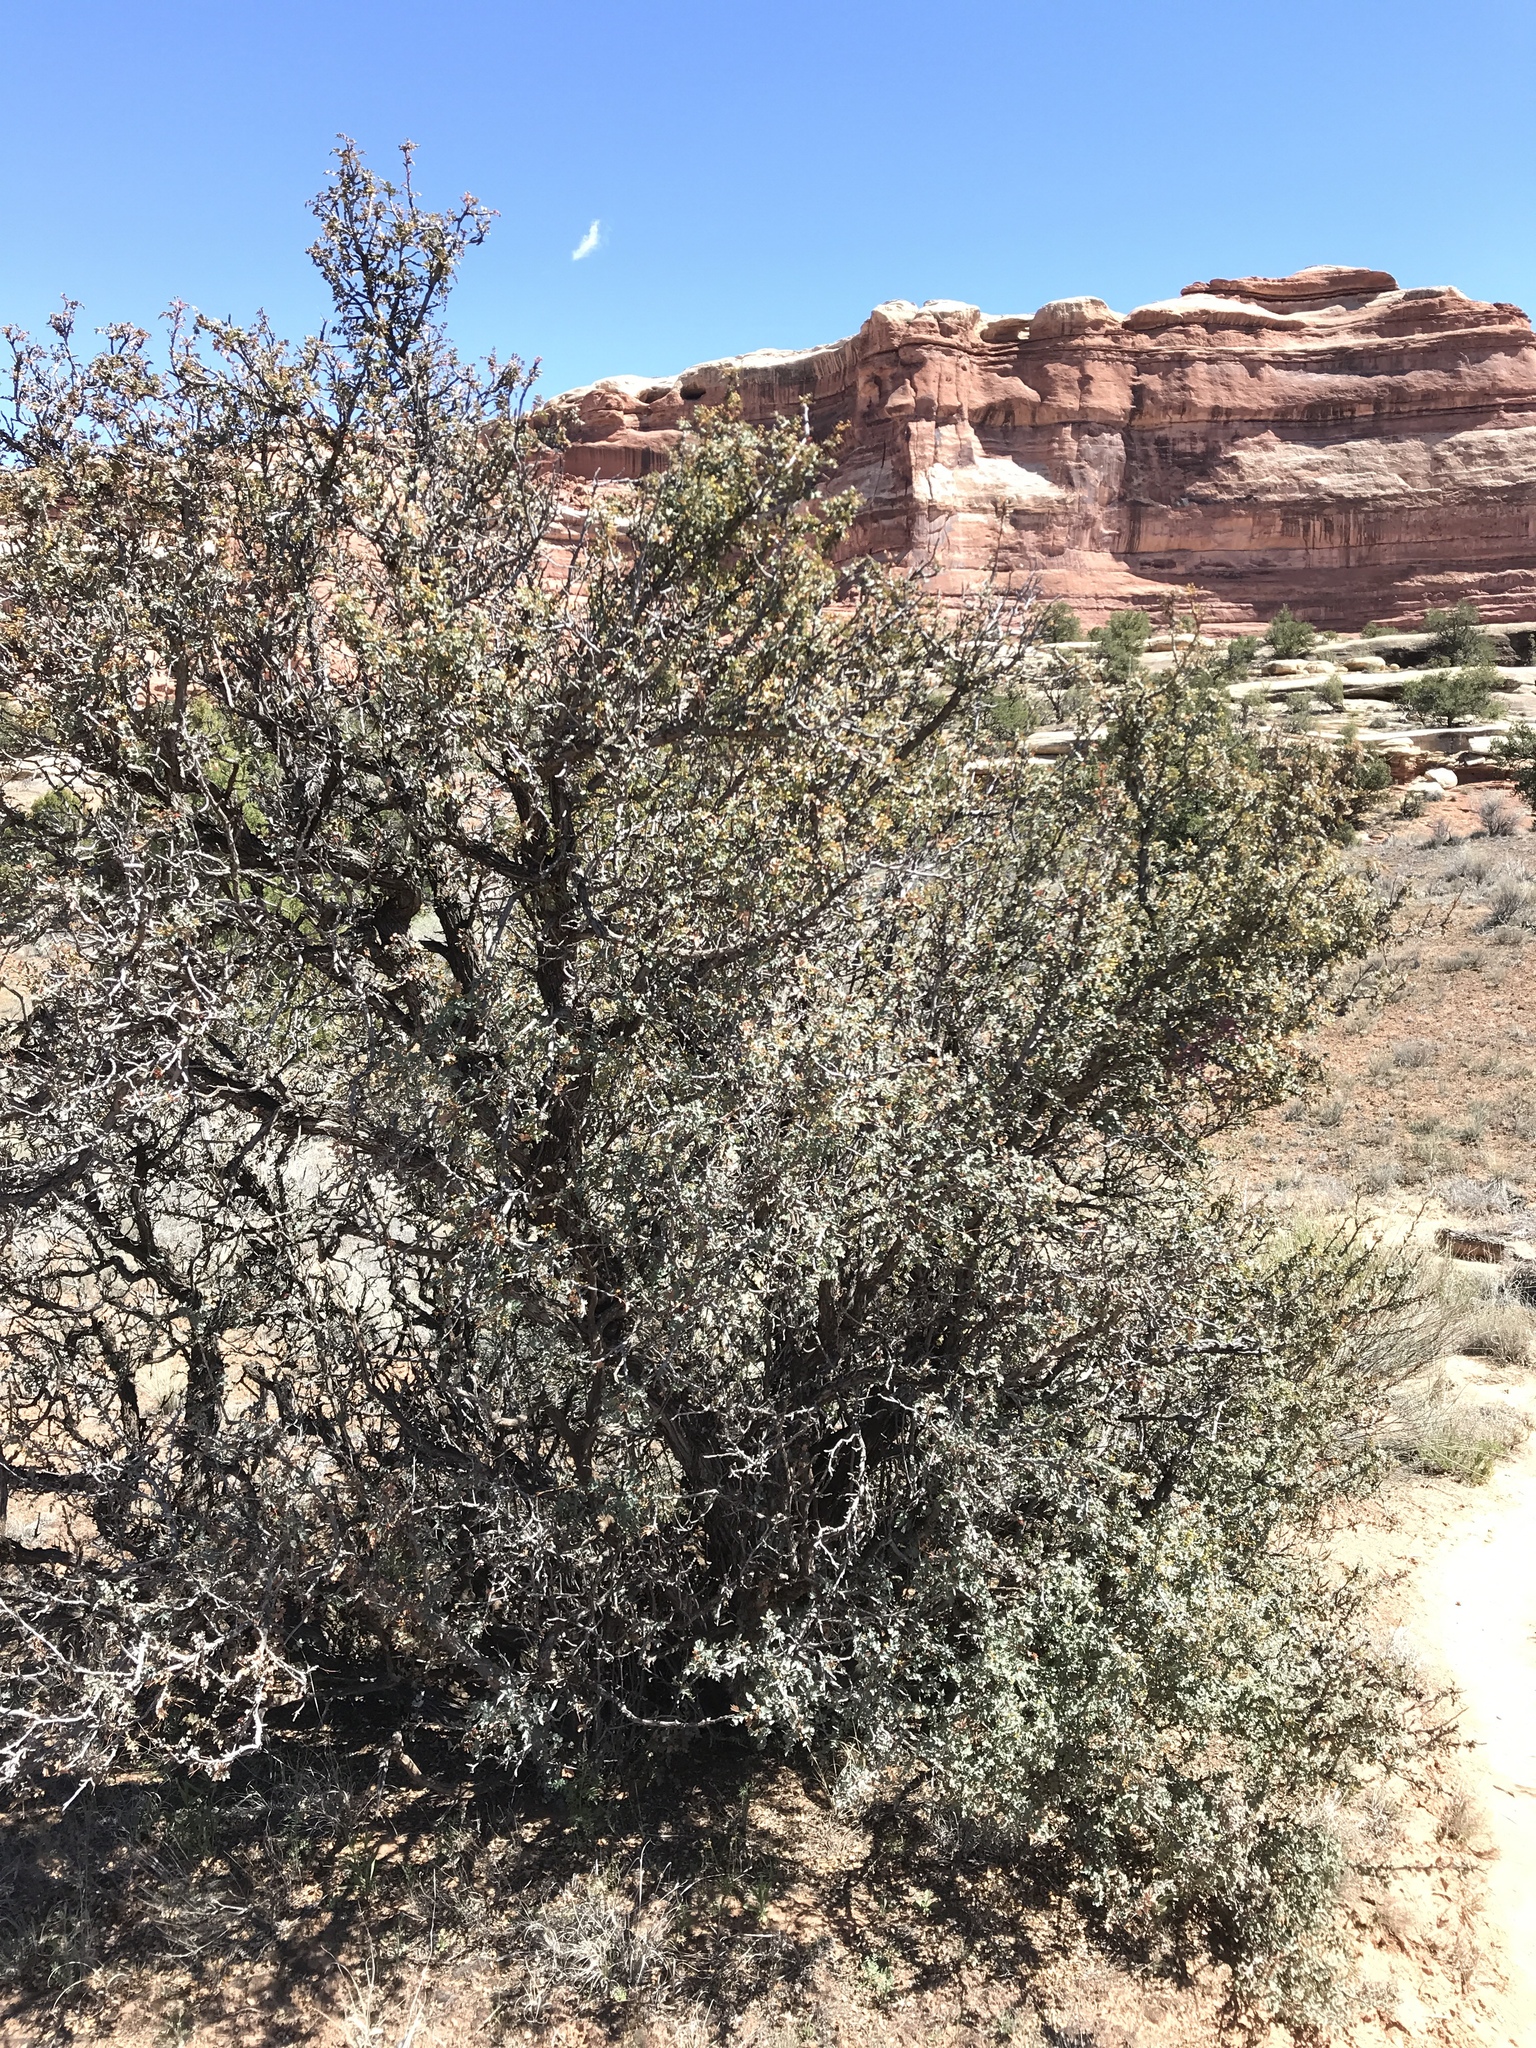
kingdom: Plantae
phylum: Tracheophyta
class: Magnoliopsida
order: Ranunculales
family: Berberidaceae
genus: Alloberberis
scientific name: Alloberberis fremontii
